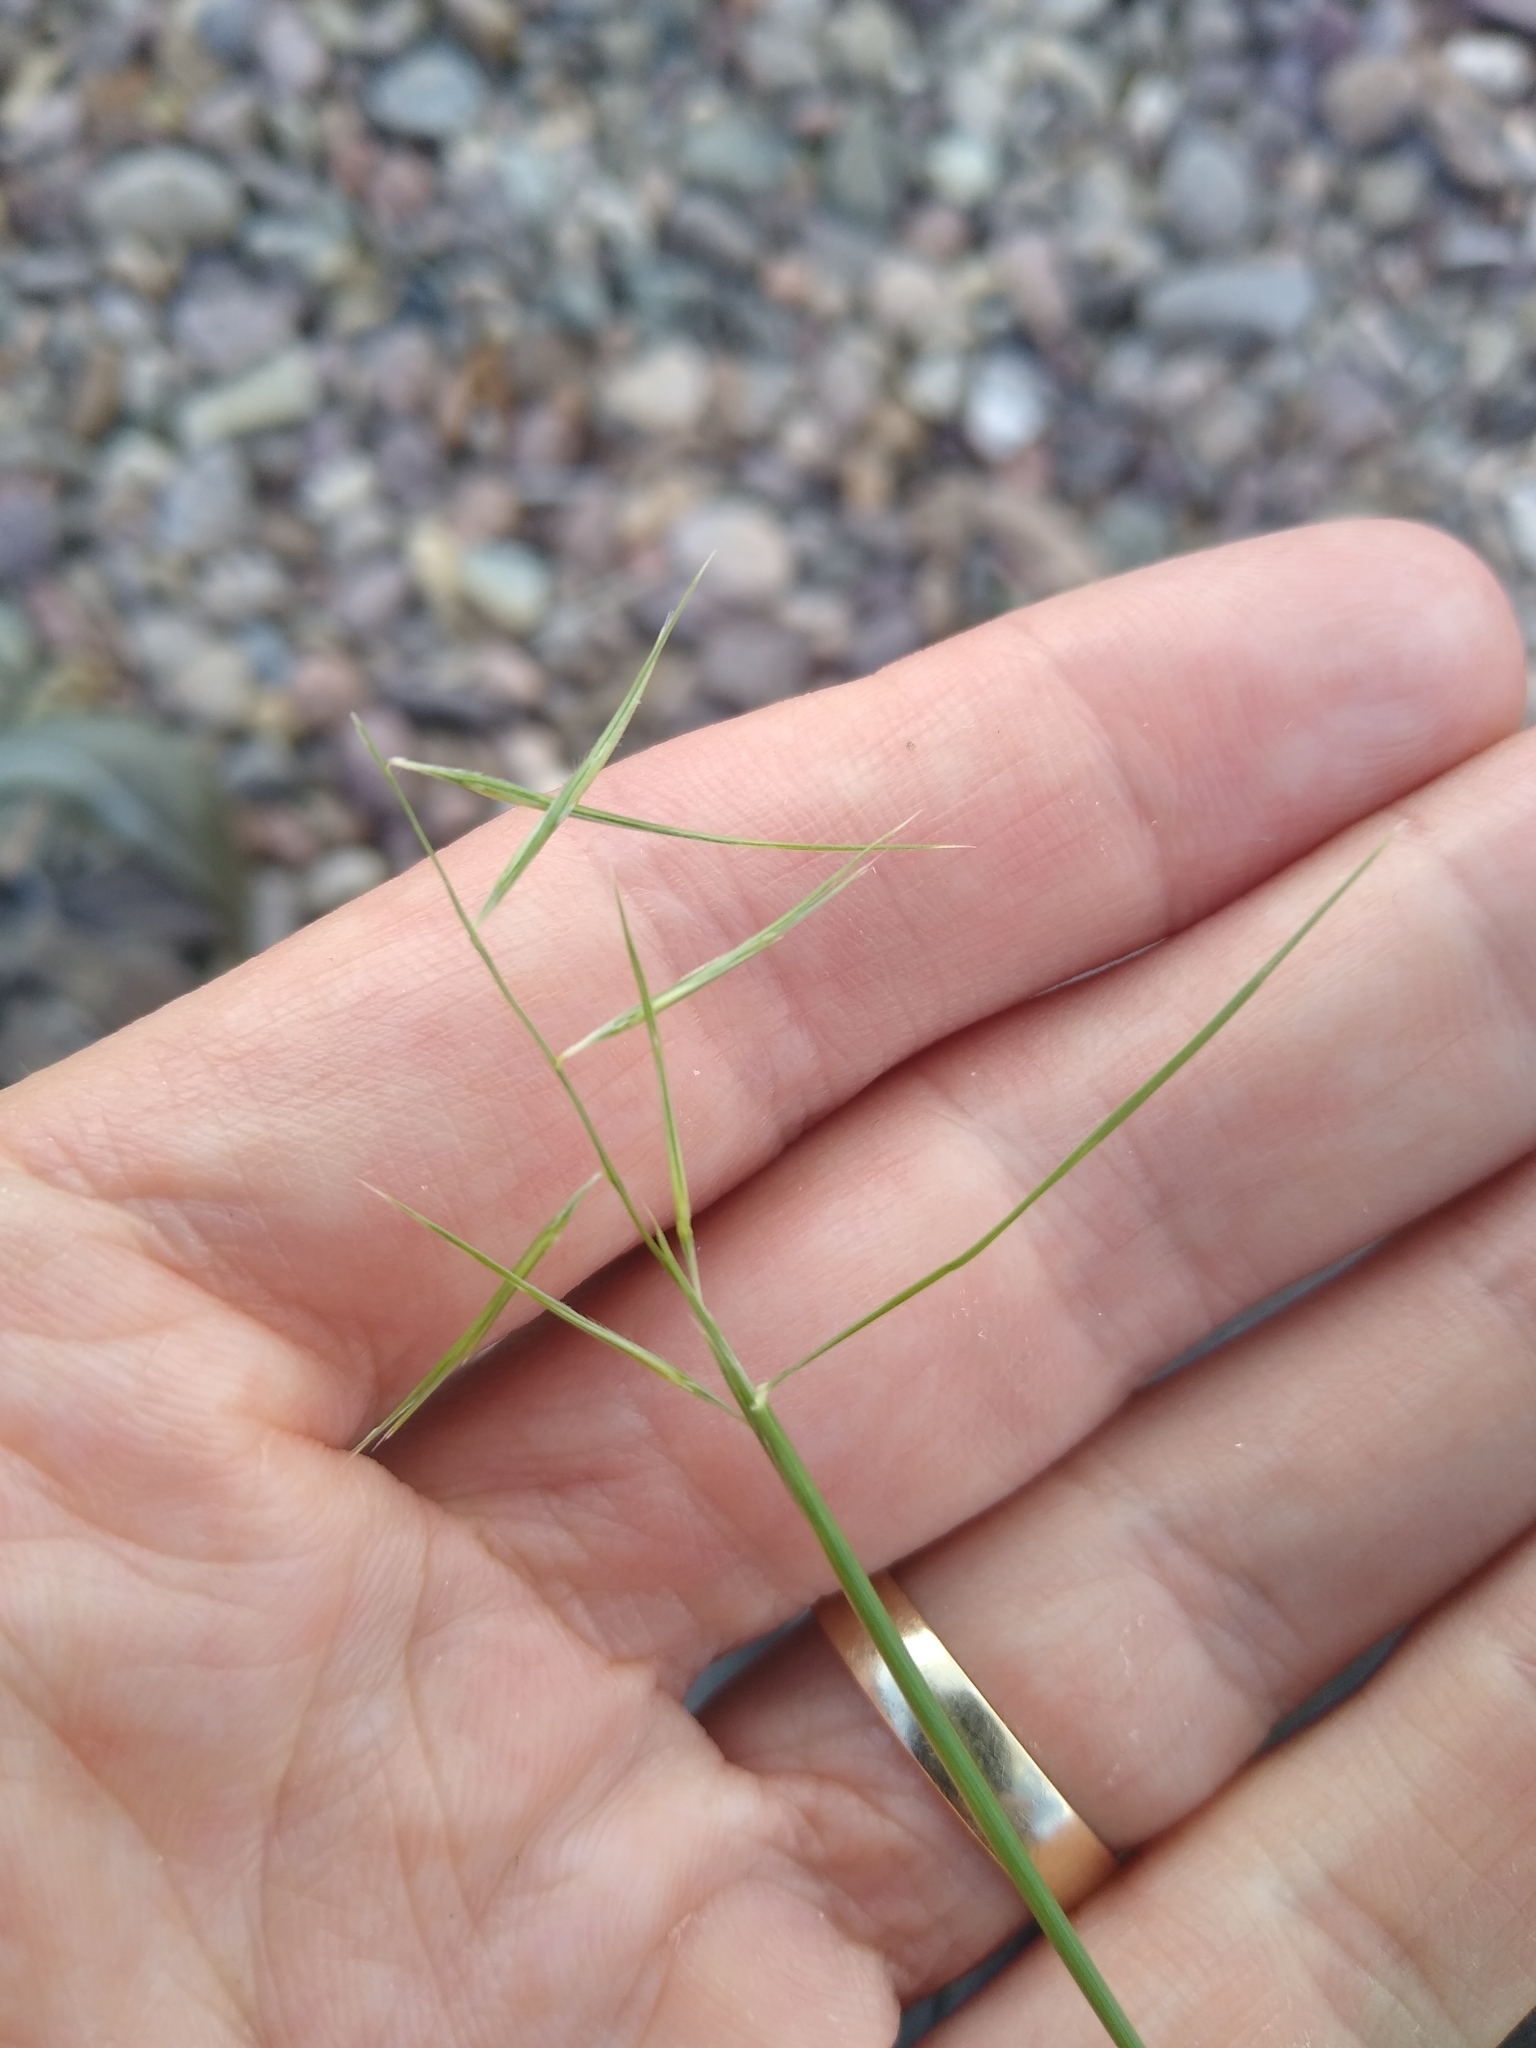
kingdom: Plantae
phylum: Tracheophyta
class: Liliopsida
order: Poales
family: Poaceae
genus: Bouteloua
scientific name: Bouteloua aristidoides
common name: Needle grama
